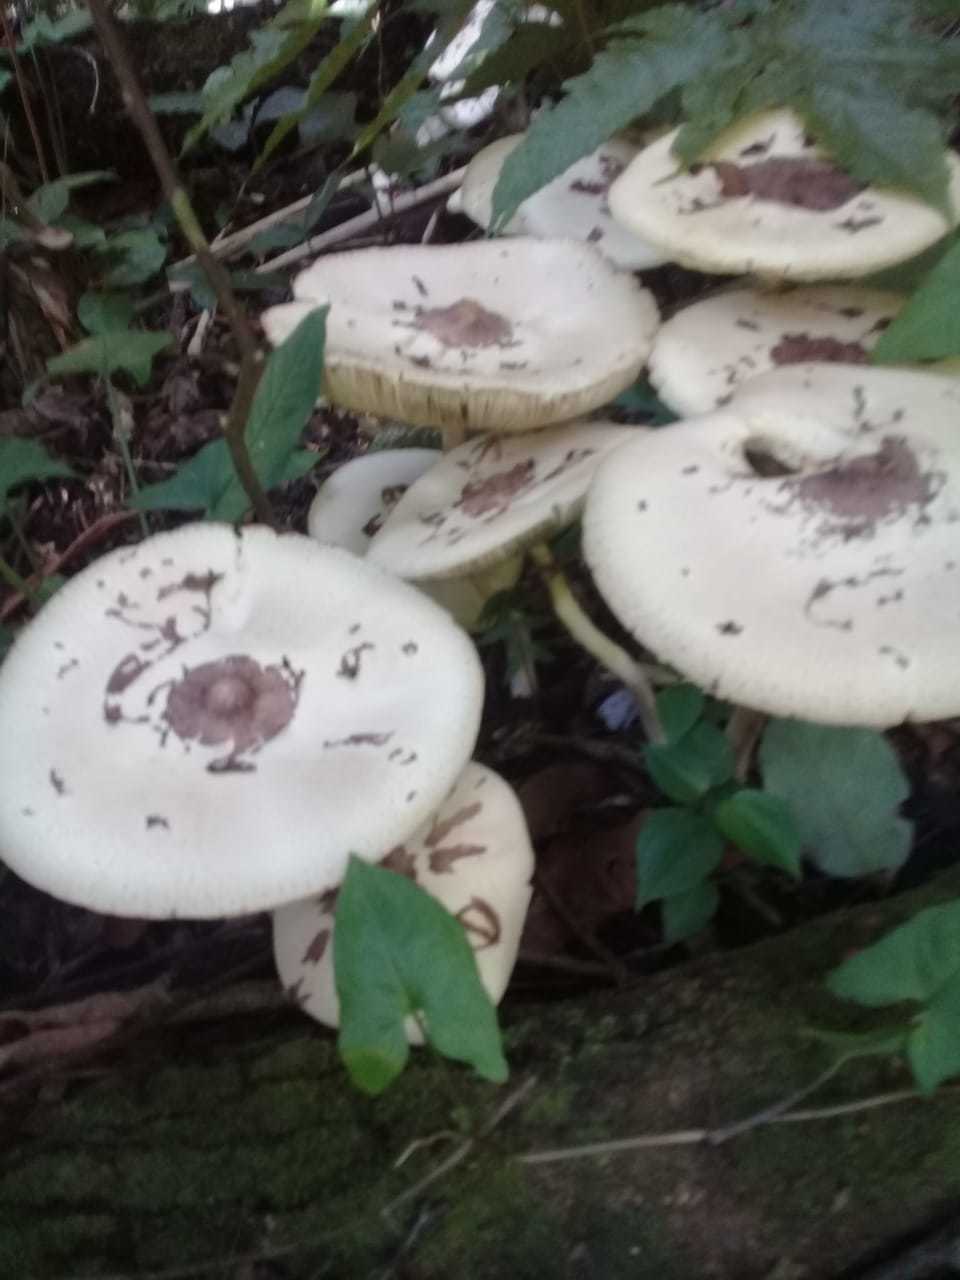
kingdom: Fungi
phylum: Basidiomycota
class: Agaricomycetes
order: Agaricales
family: Agaricaceae
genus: Chlorophyllum
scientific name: Chlorophyllum molybdites
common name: False parasol
